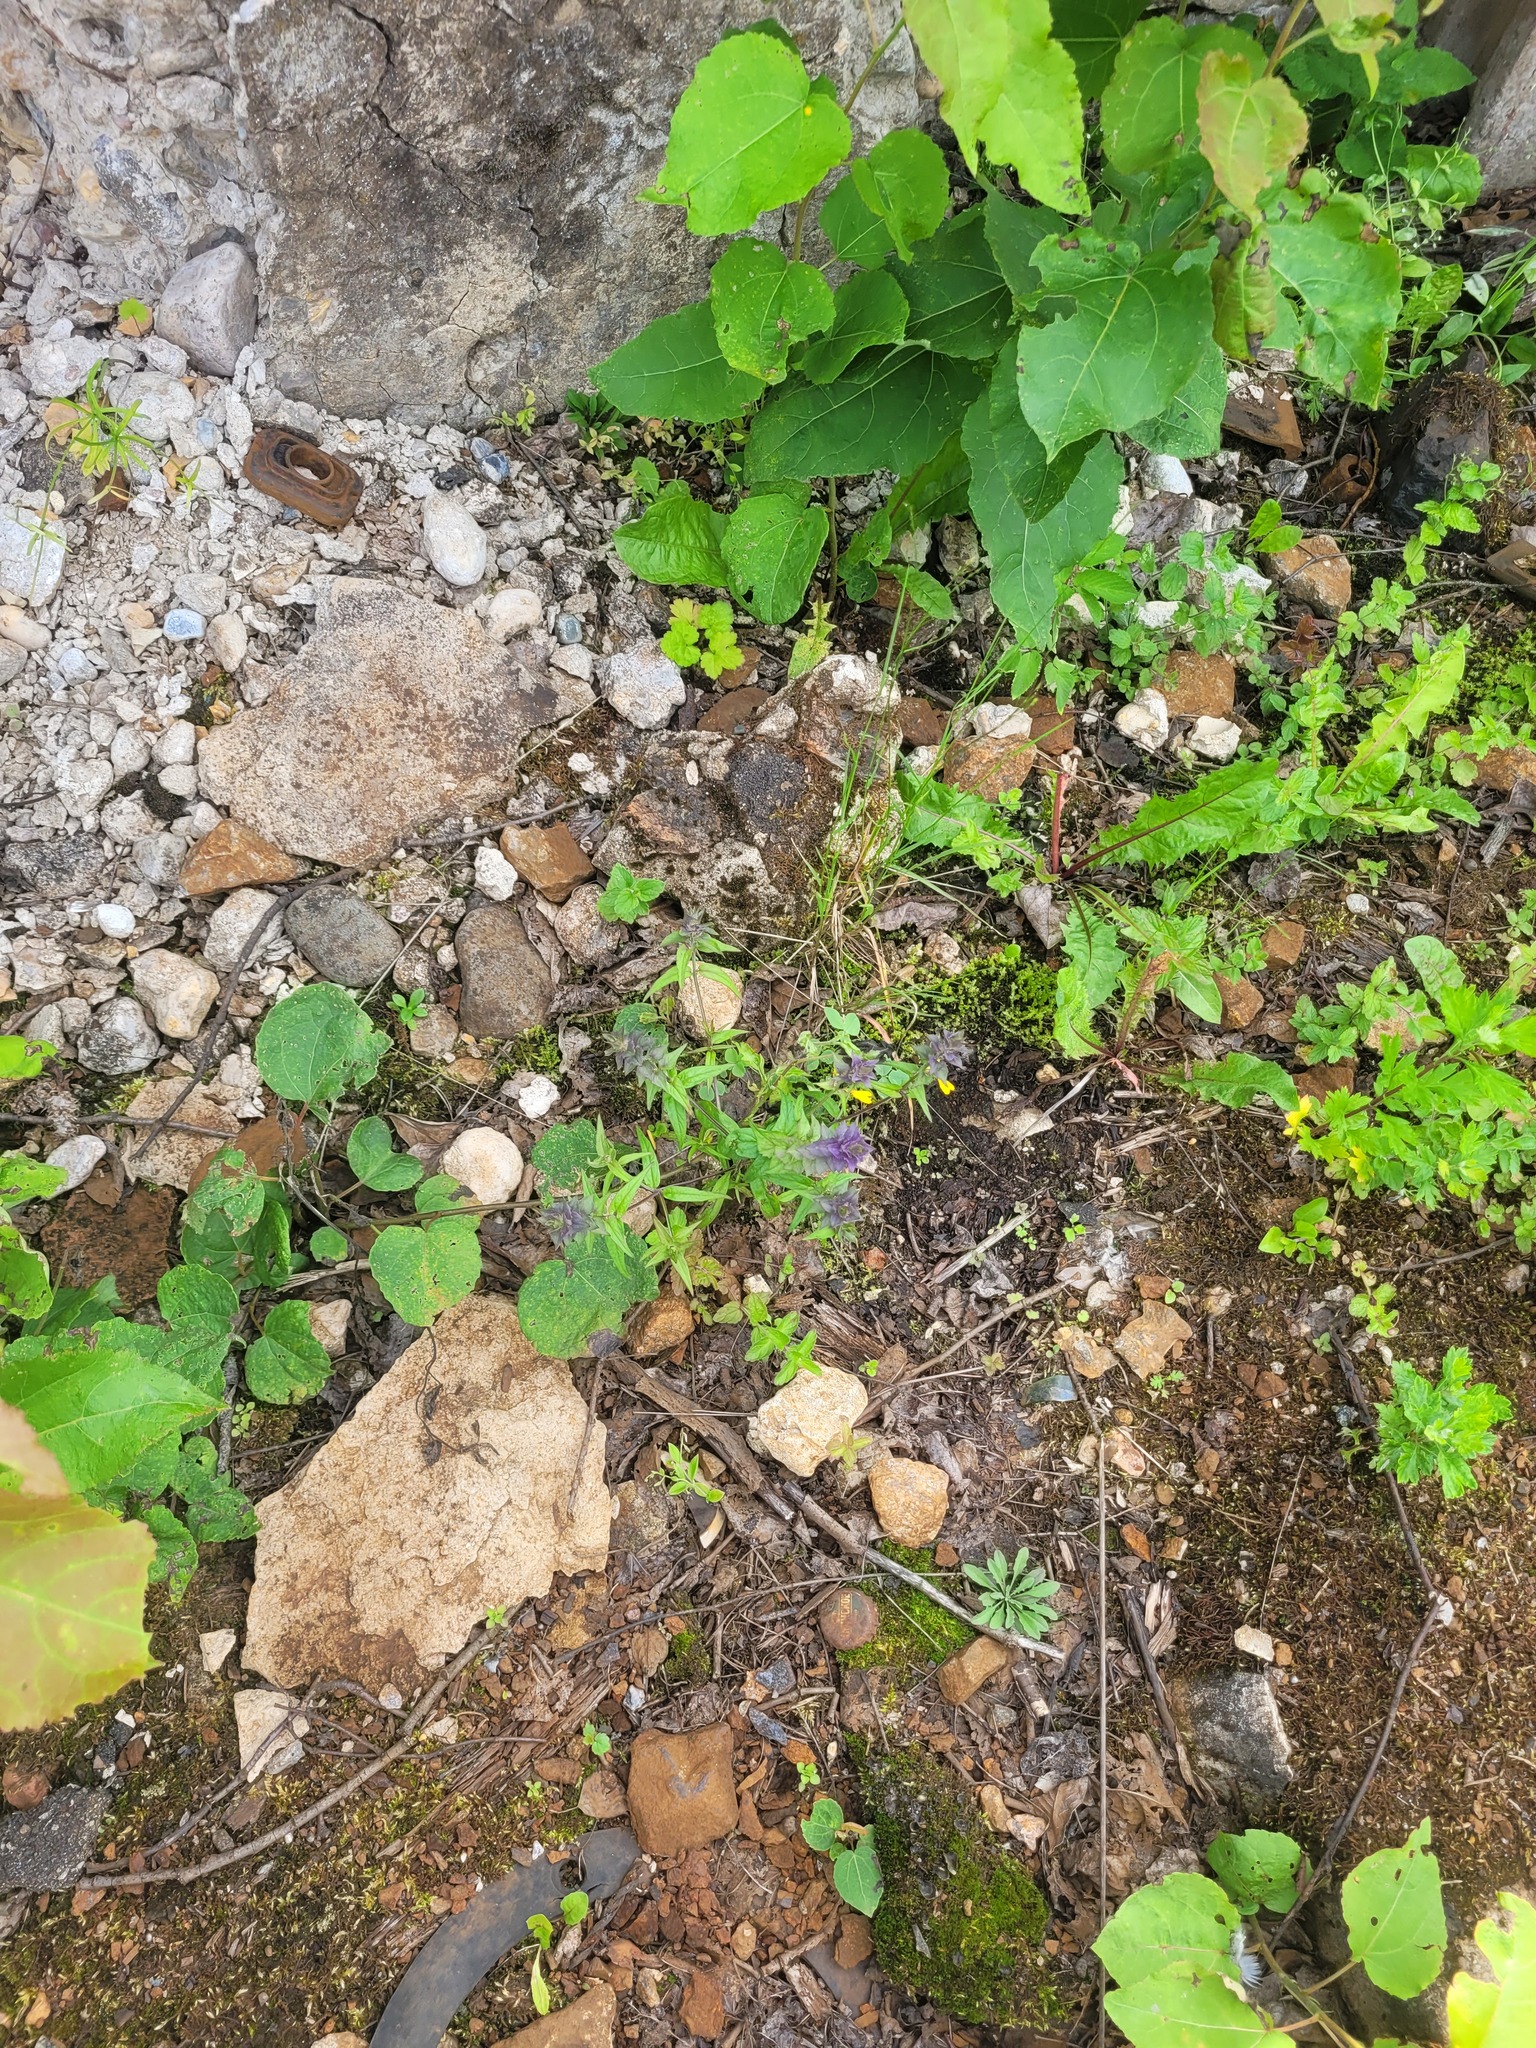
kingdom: Plantae
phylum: Tracheophyta
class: Magnoliopsida
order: Lamiales
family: Orobanchaceae
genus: Melampyrum
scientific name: Melampyrum nemorosum
